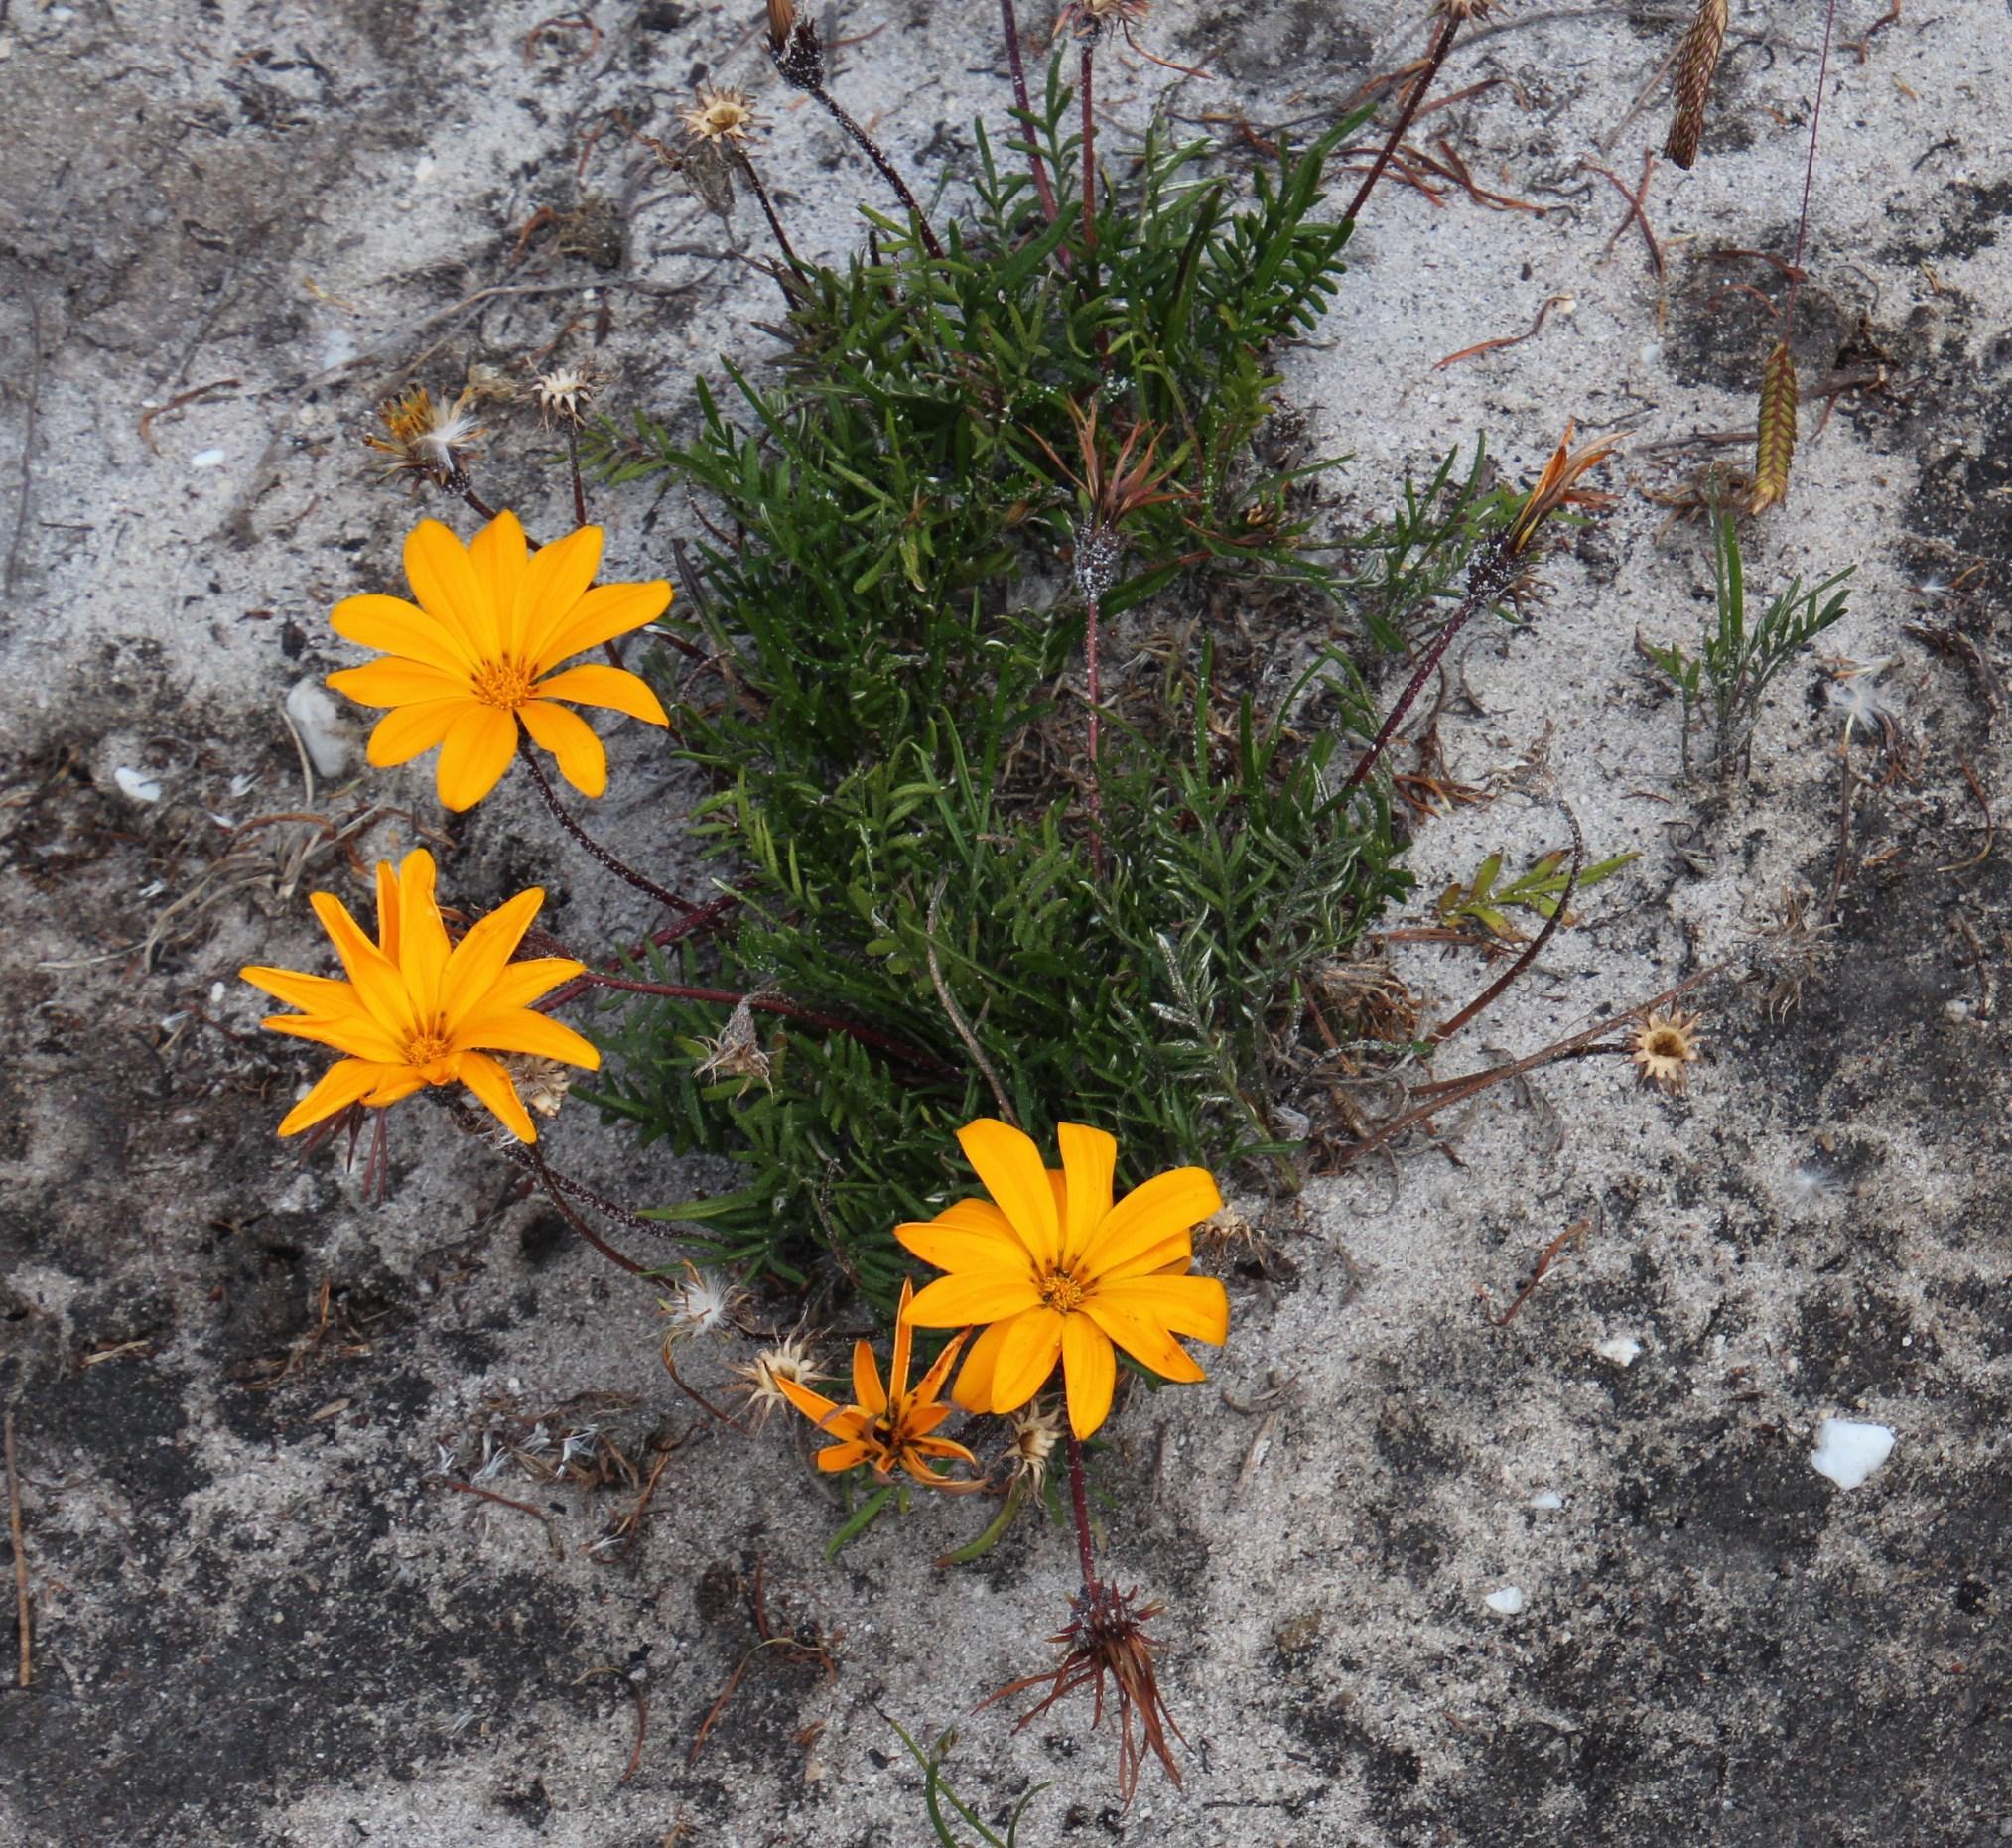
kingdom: Plantae
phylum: Tracheophyta
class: Magnoliopsida
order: Asterales
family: Asteraceae
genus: Gazania
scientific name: Gazania pectinata
